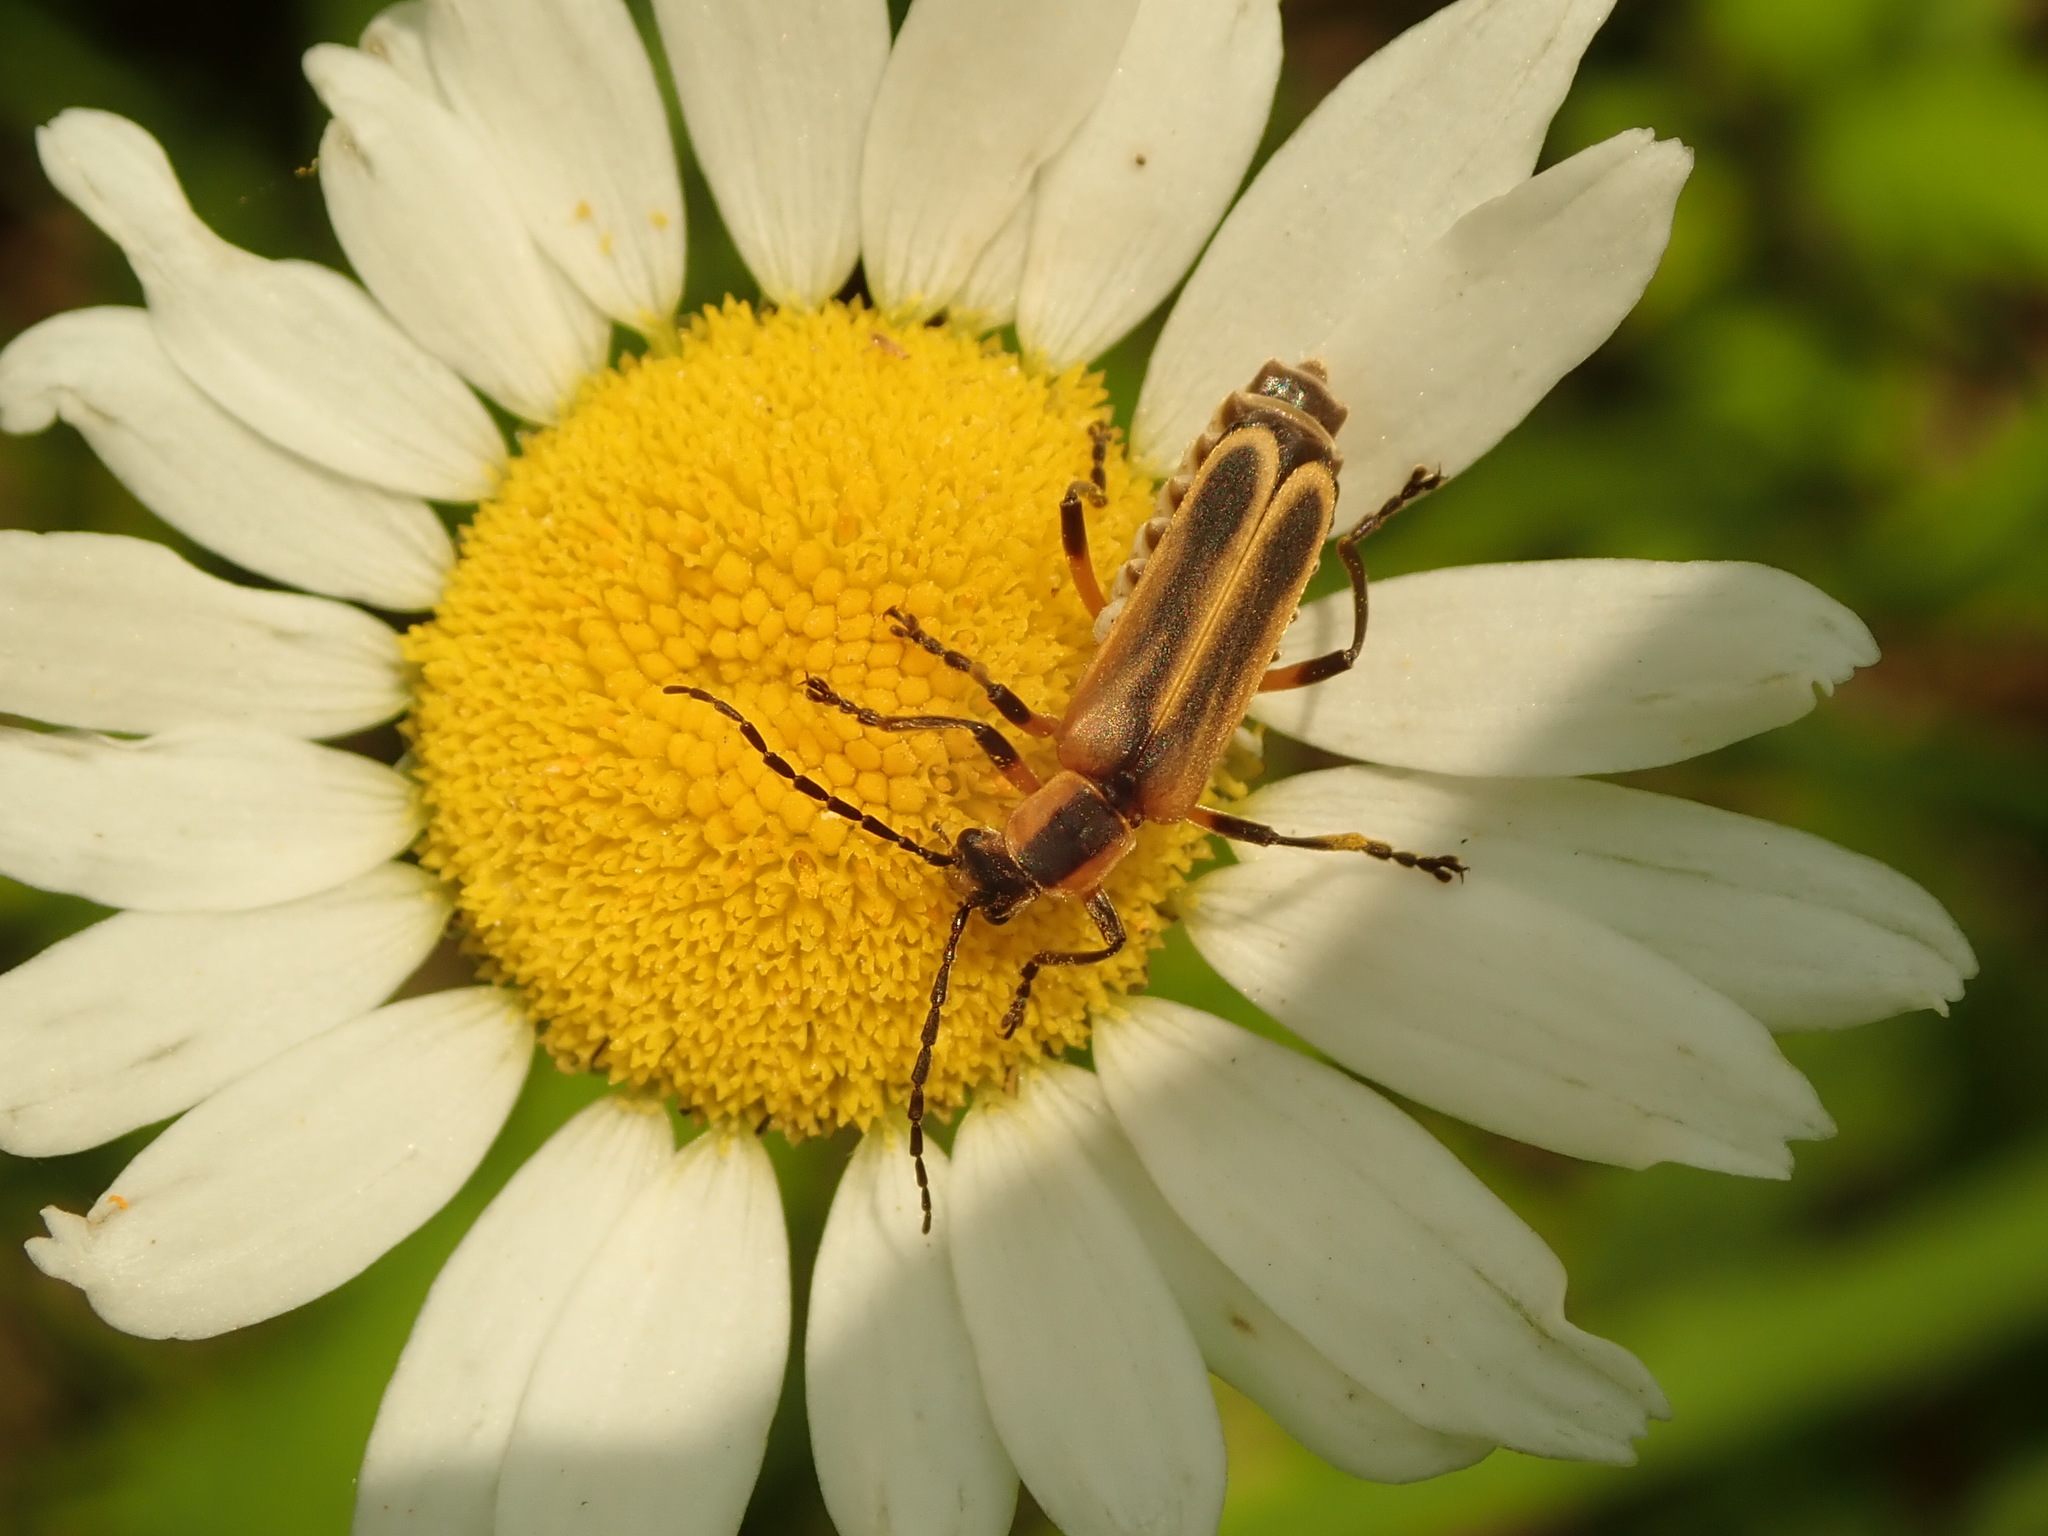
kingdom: Animalia
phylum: Arthropoda
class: Insecta
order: Coleoptera
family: Cantharidae
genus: Chauliognathus
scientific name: Chauliognathus marginatus
